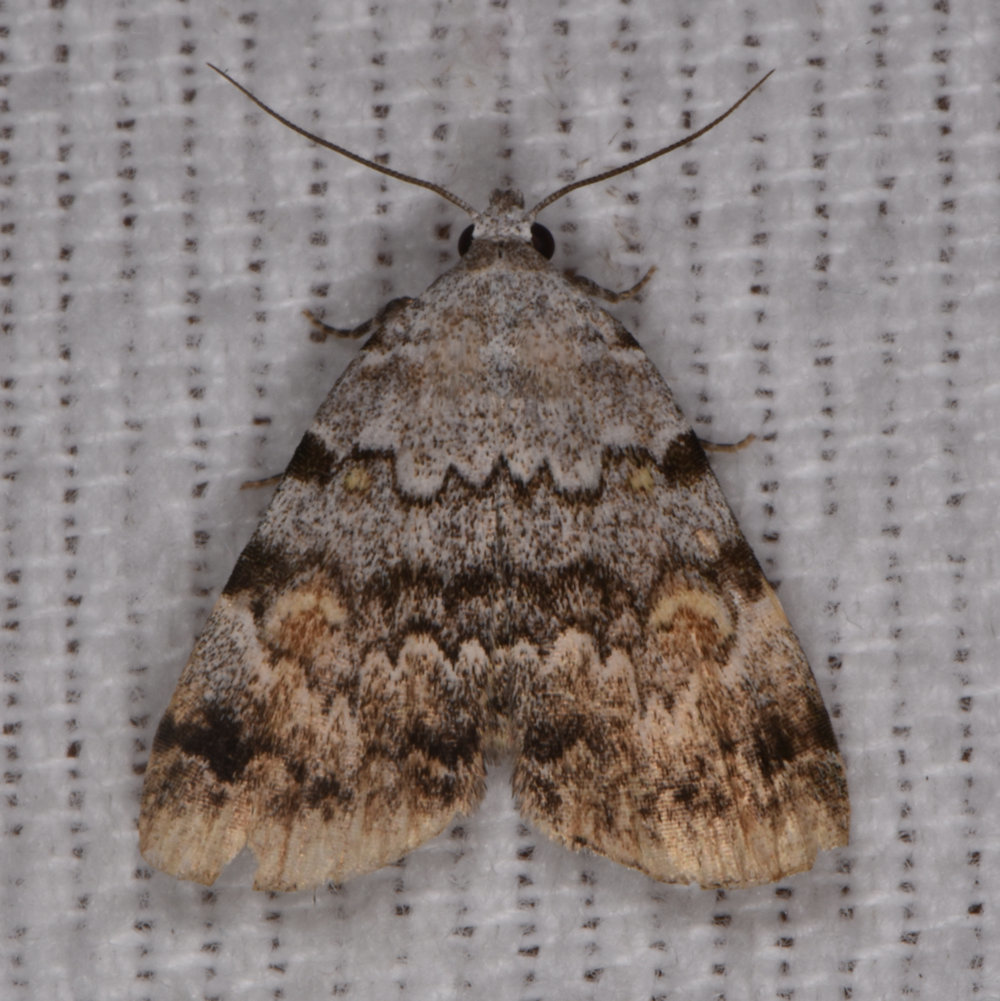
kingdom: Animalia
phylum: Arthropoda
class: Insecta
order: Lepidoptera
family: Erebidae
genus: Idia
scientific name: Idia americalis
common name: American idia moth
